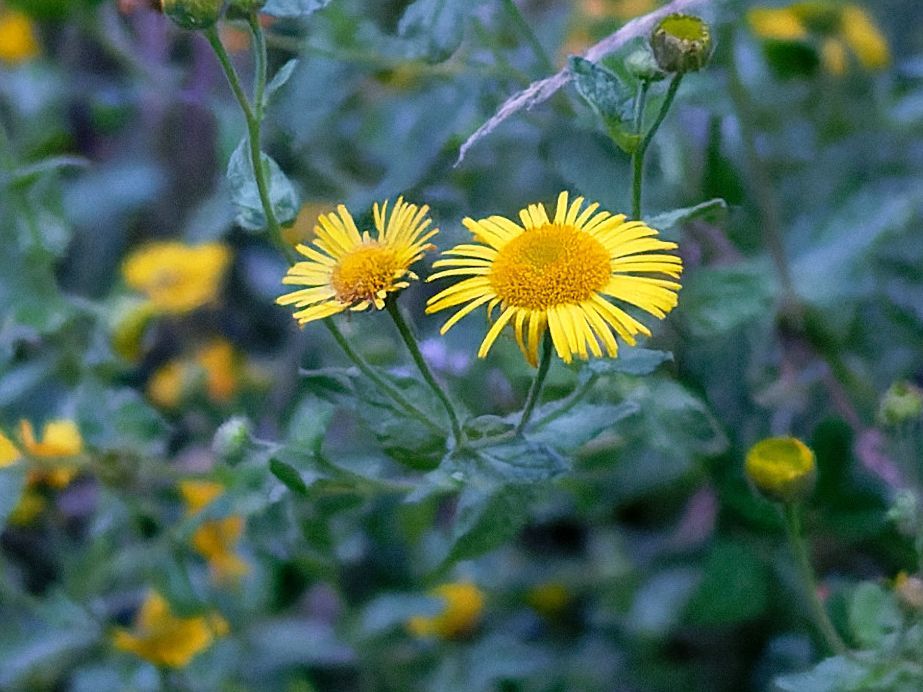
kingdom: Plantae
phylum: Tracheophyta
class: Magnoliopsida
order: Asterales
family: Asteraceae
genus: Pulicaria
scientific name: Pulicaria dysenterica
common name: Common fleabane
